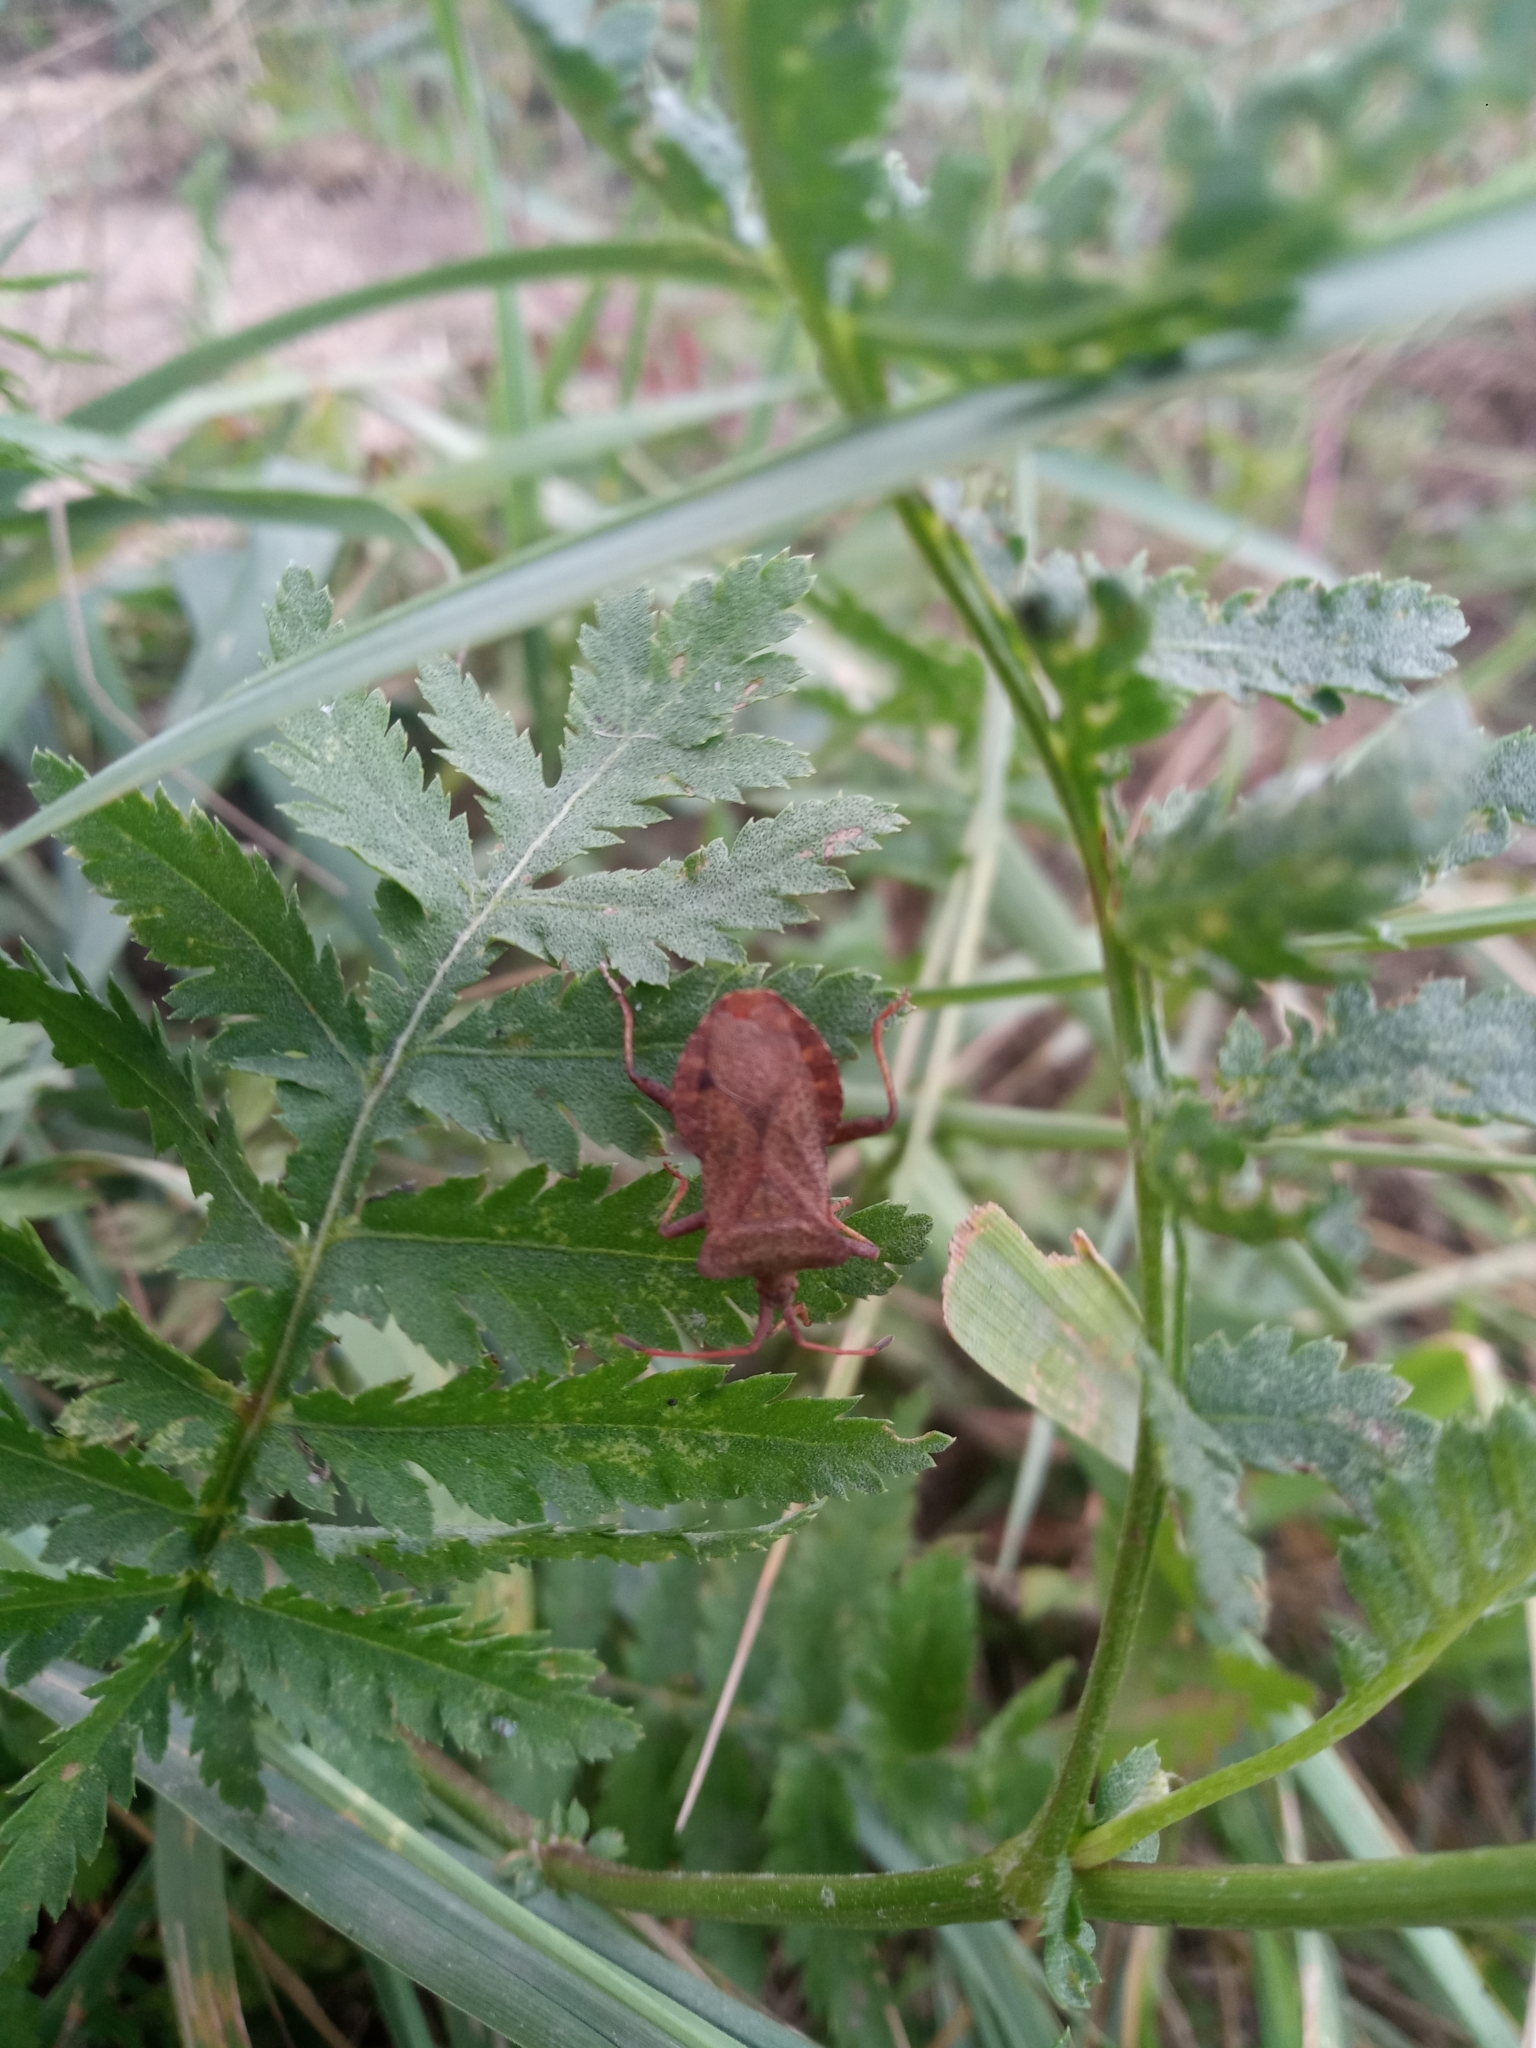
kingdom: Animalia
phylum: Arthropoda
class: Insecta
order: Hemiptera
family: Coreidae
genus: Coreus
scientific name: Coreus marginatus
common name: Dock bug
